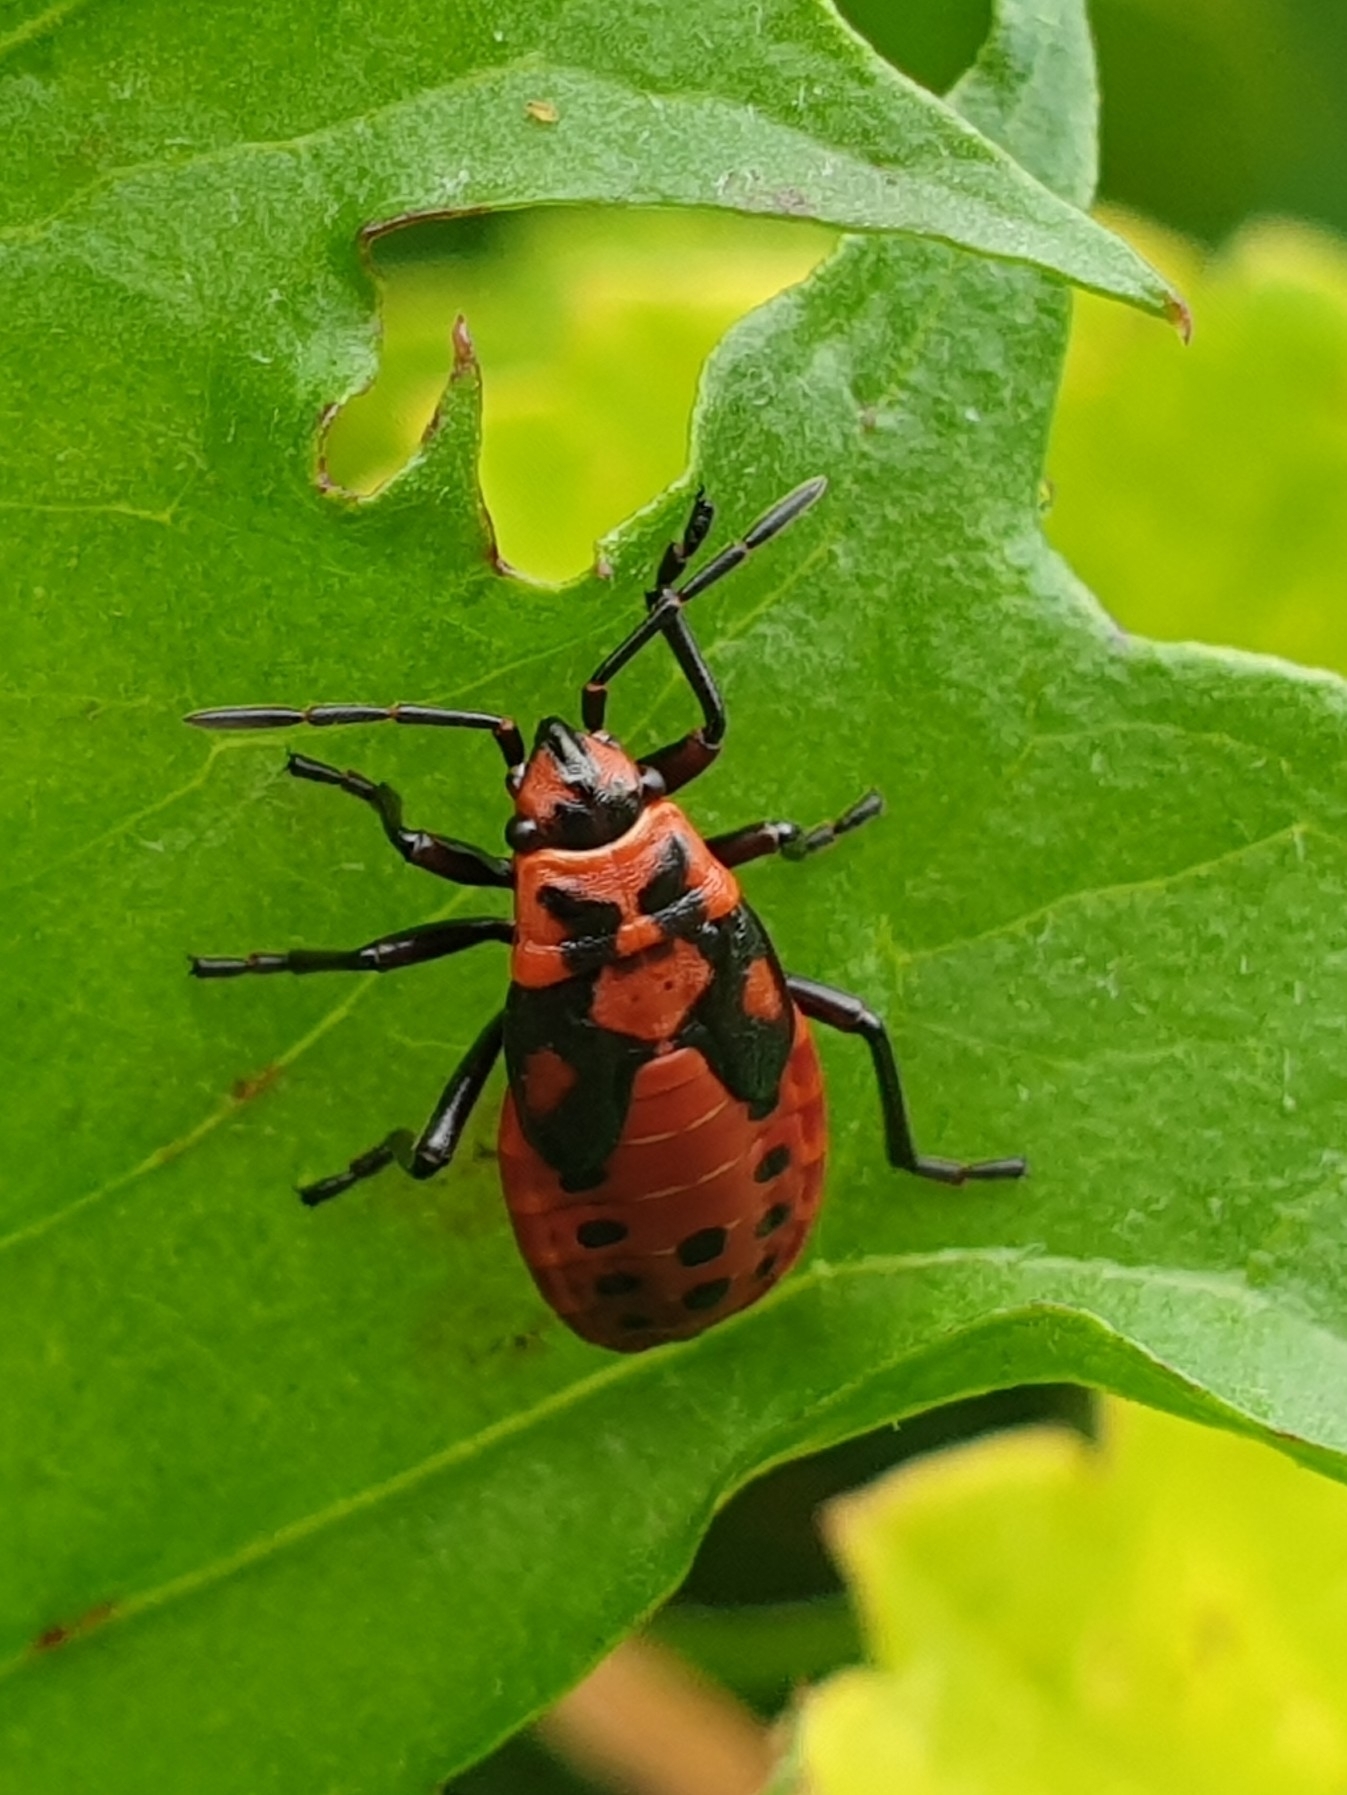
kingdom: Animalia
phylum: Arthropoda
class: Insecta
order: Hemiptera
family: Lygaeidae
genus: Spilostethus
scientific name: Spilostethus saxatilis
